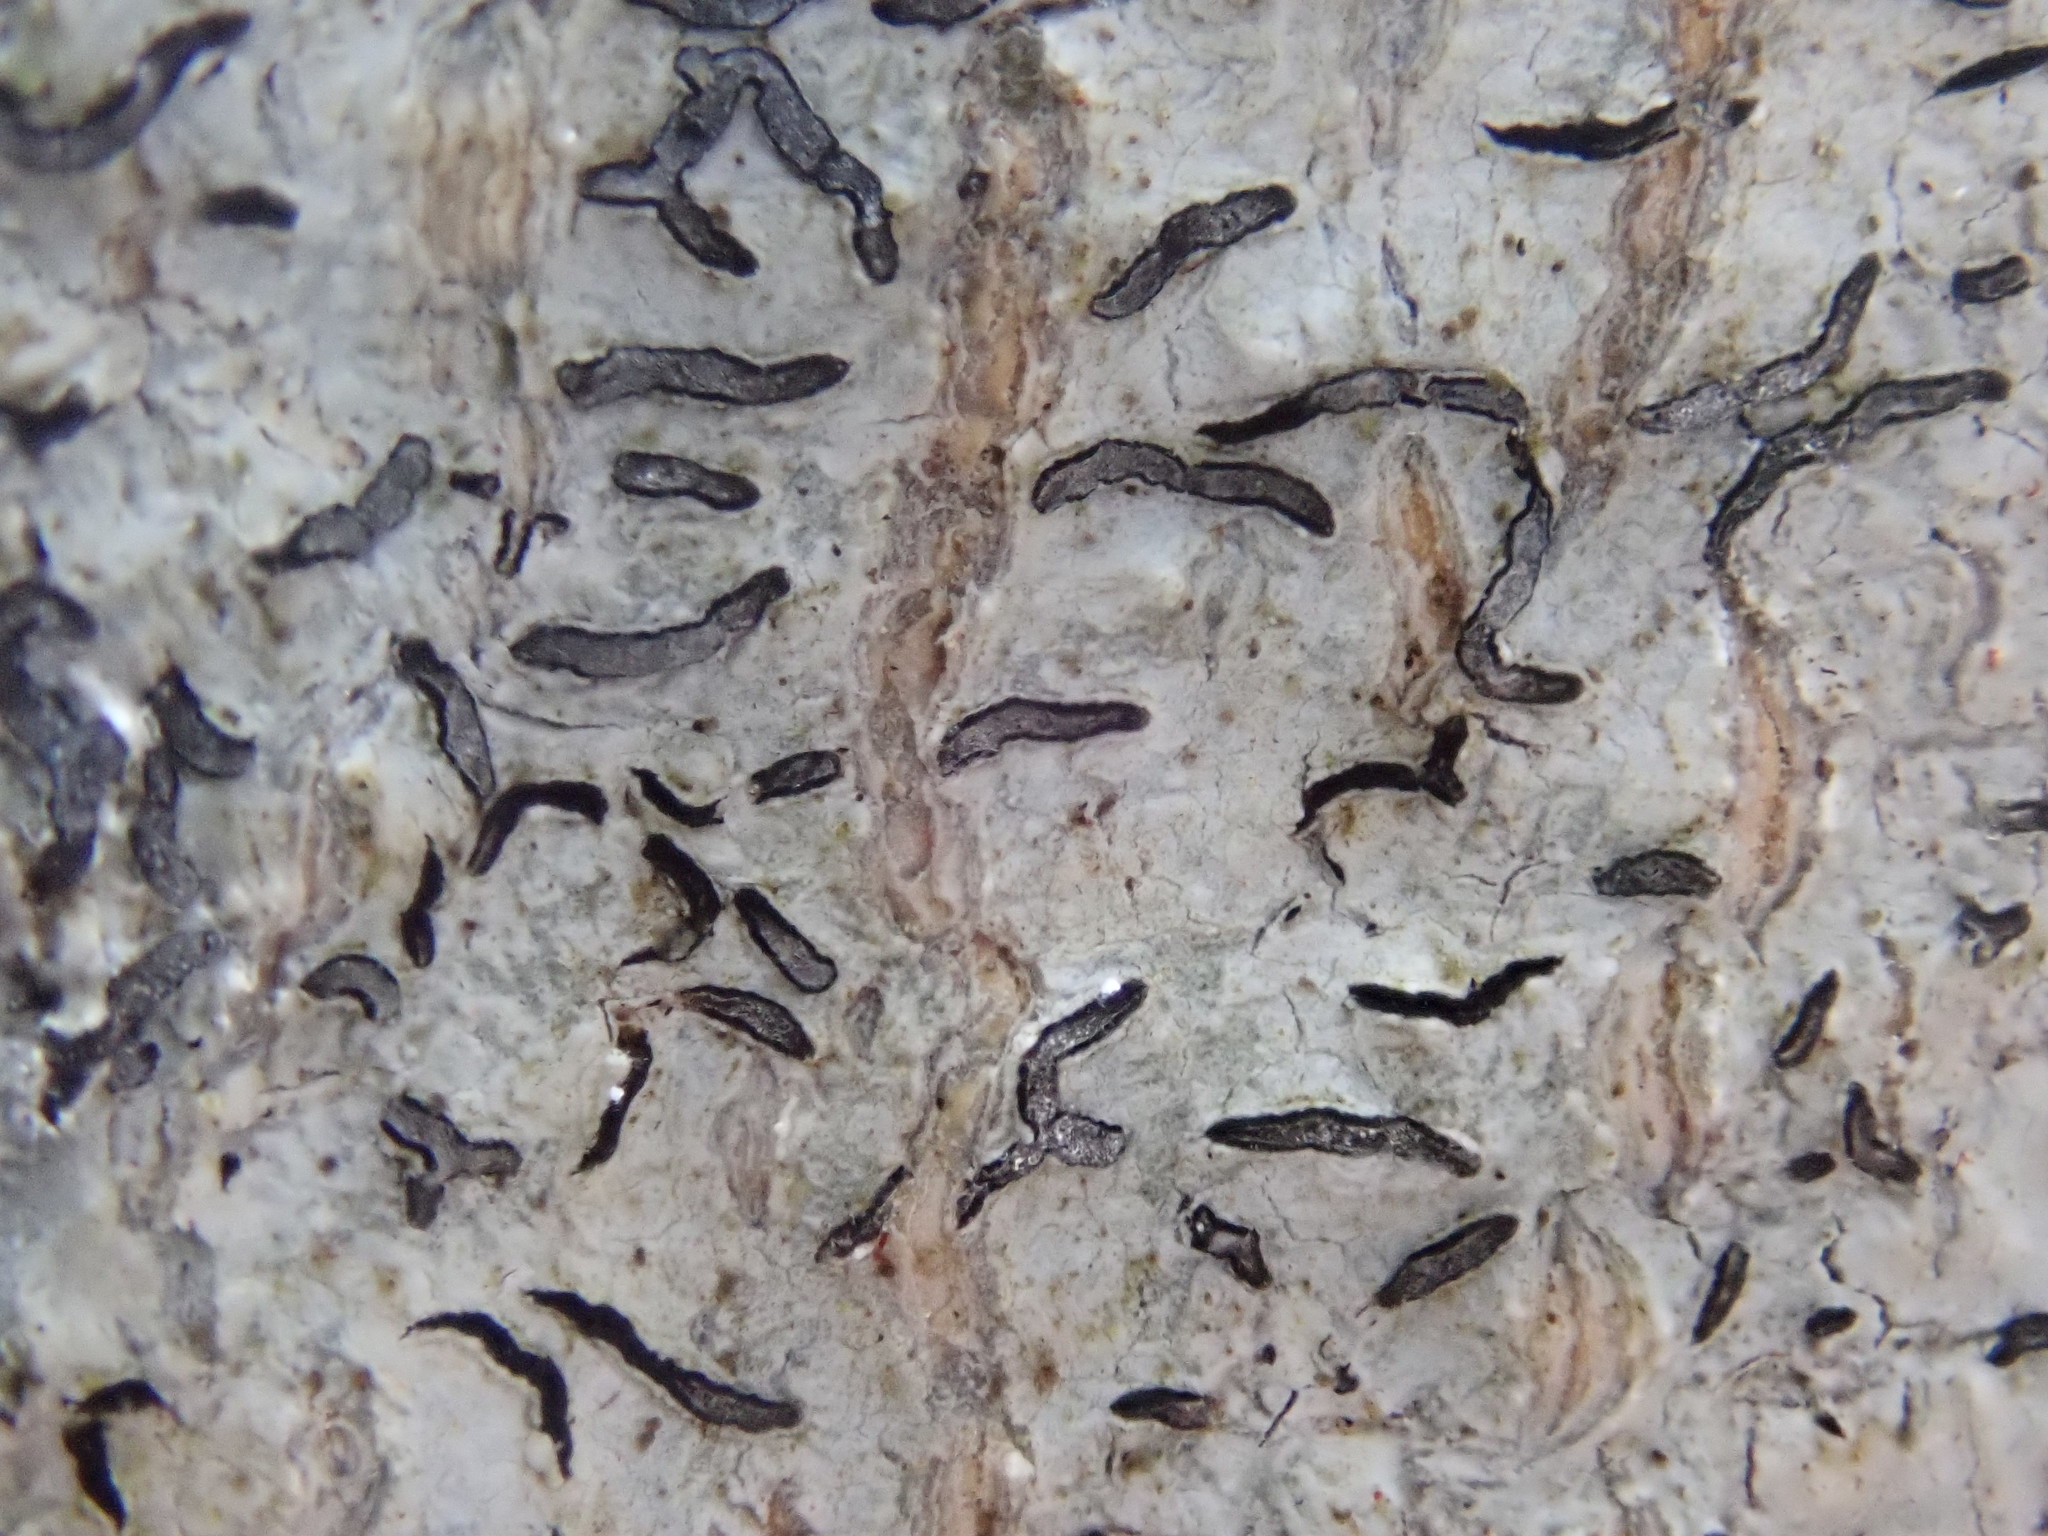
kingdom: Fungi
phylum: Ascomycota
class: Lecanoromycetes
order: Ostropales
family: Graphidaceae
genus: Graphis
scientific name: Graphis scripta
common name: Script lichen
